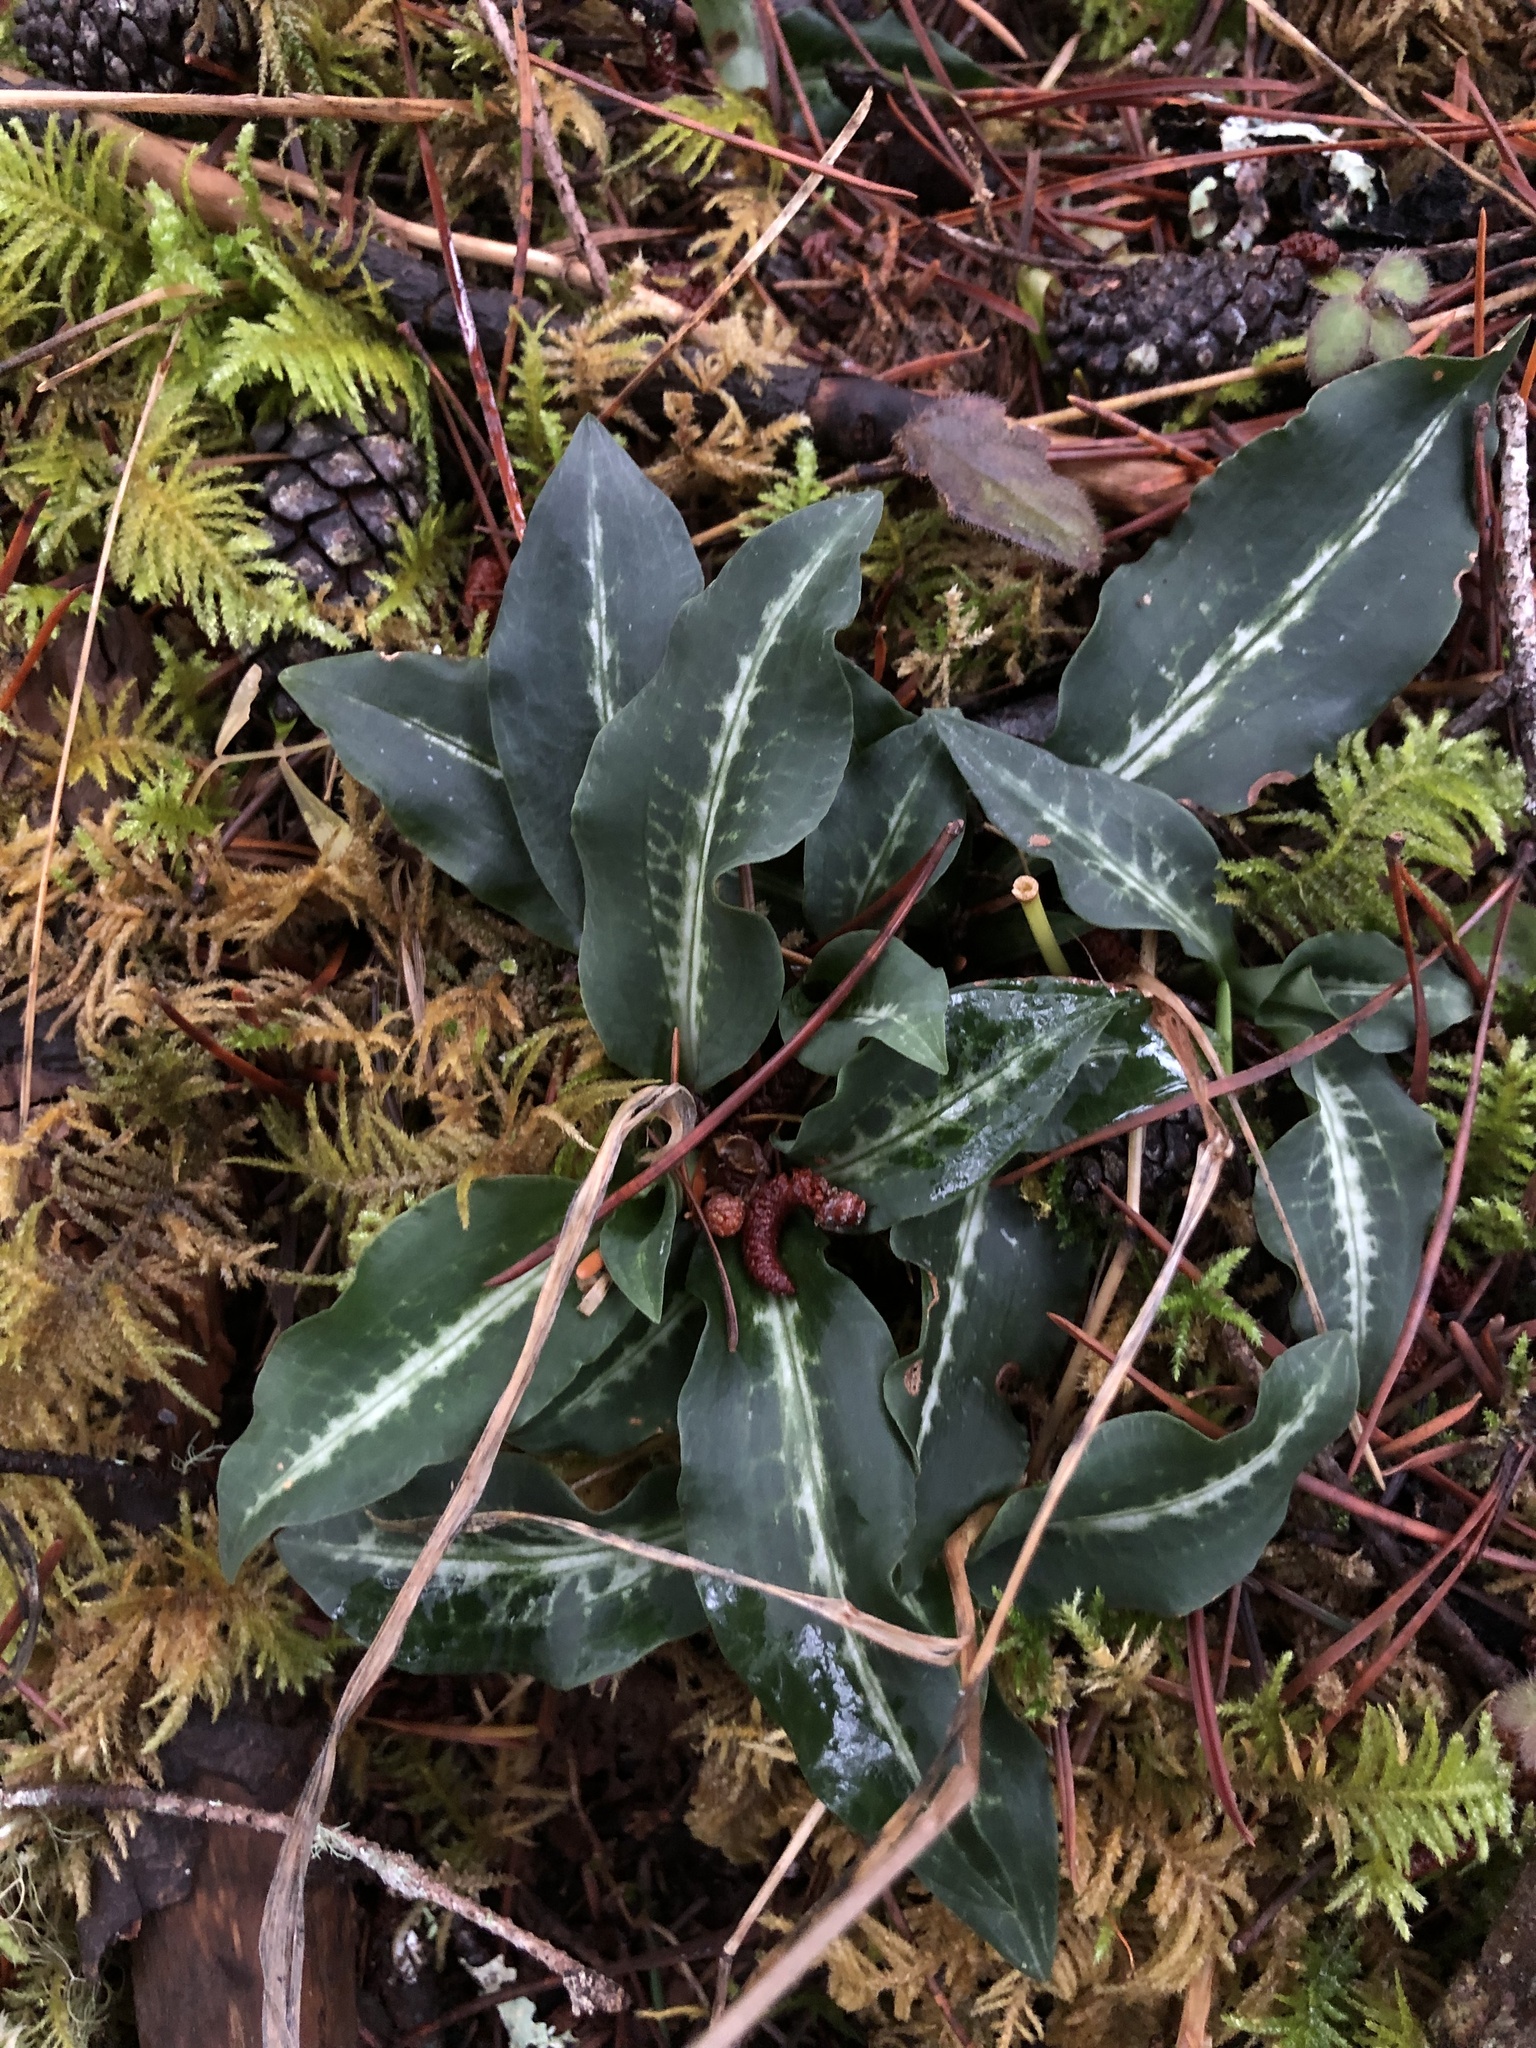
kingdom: Plantae
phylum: Tracheophyta
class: Liliopsida
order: Asparagales
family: Orchidaceae
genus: Goodyera
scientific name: Goodyera oblongifolia
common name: Giant rattlesnake-plantain
